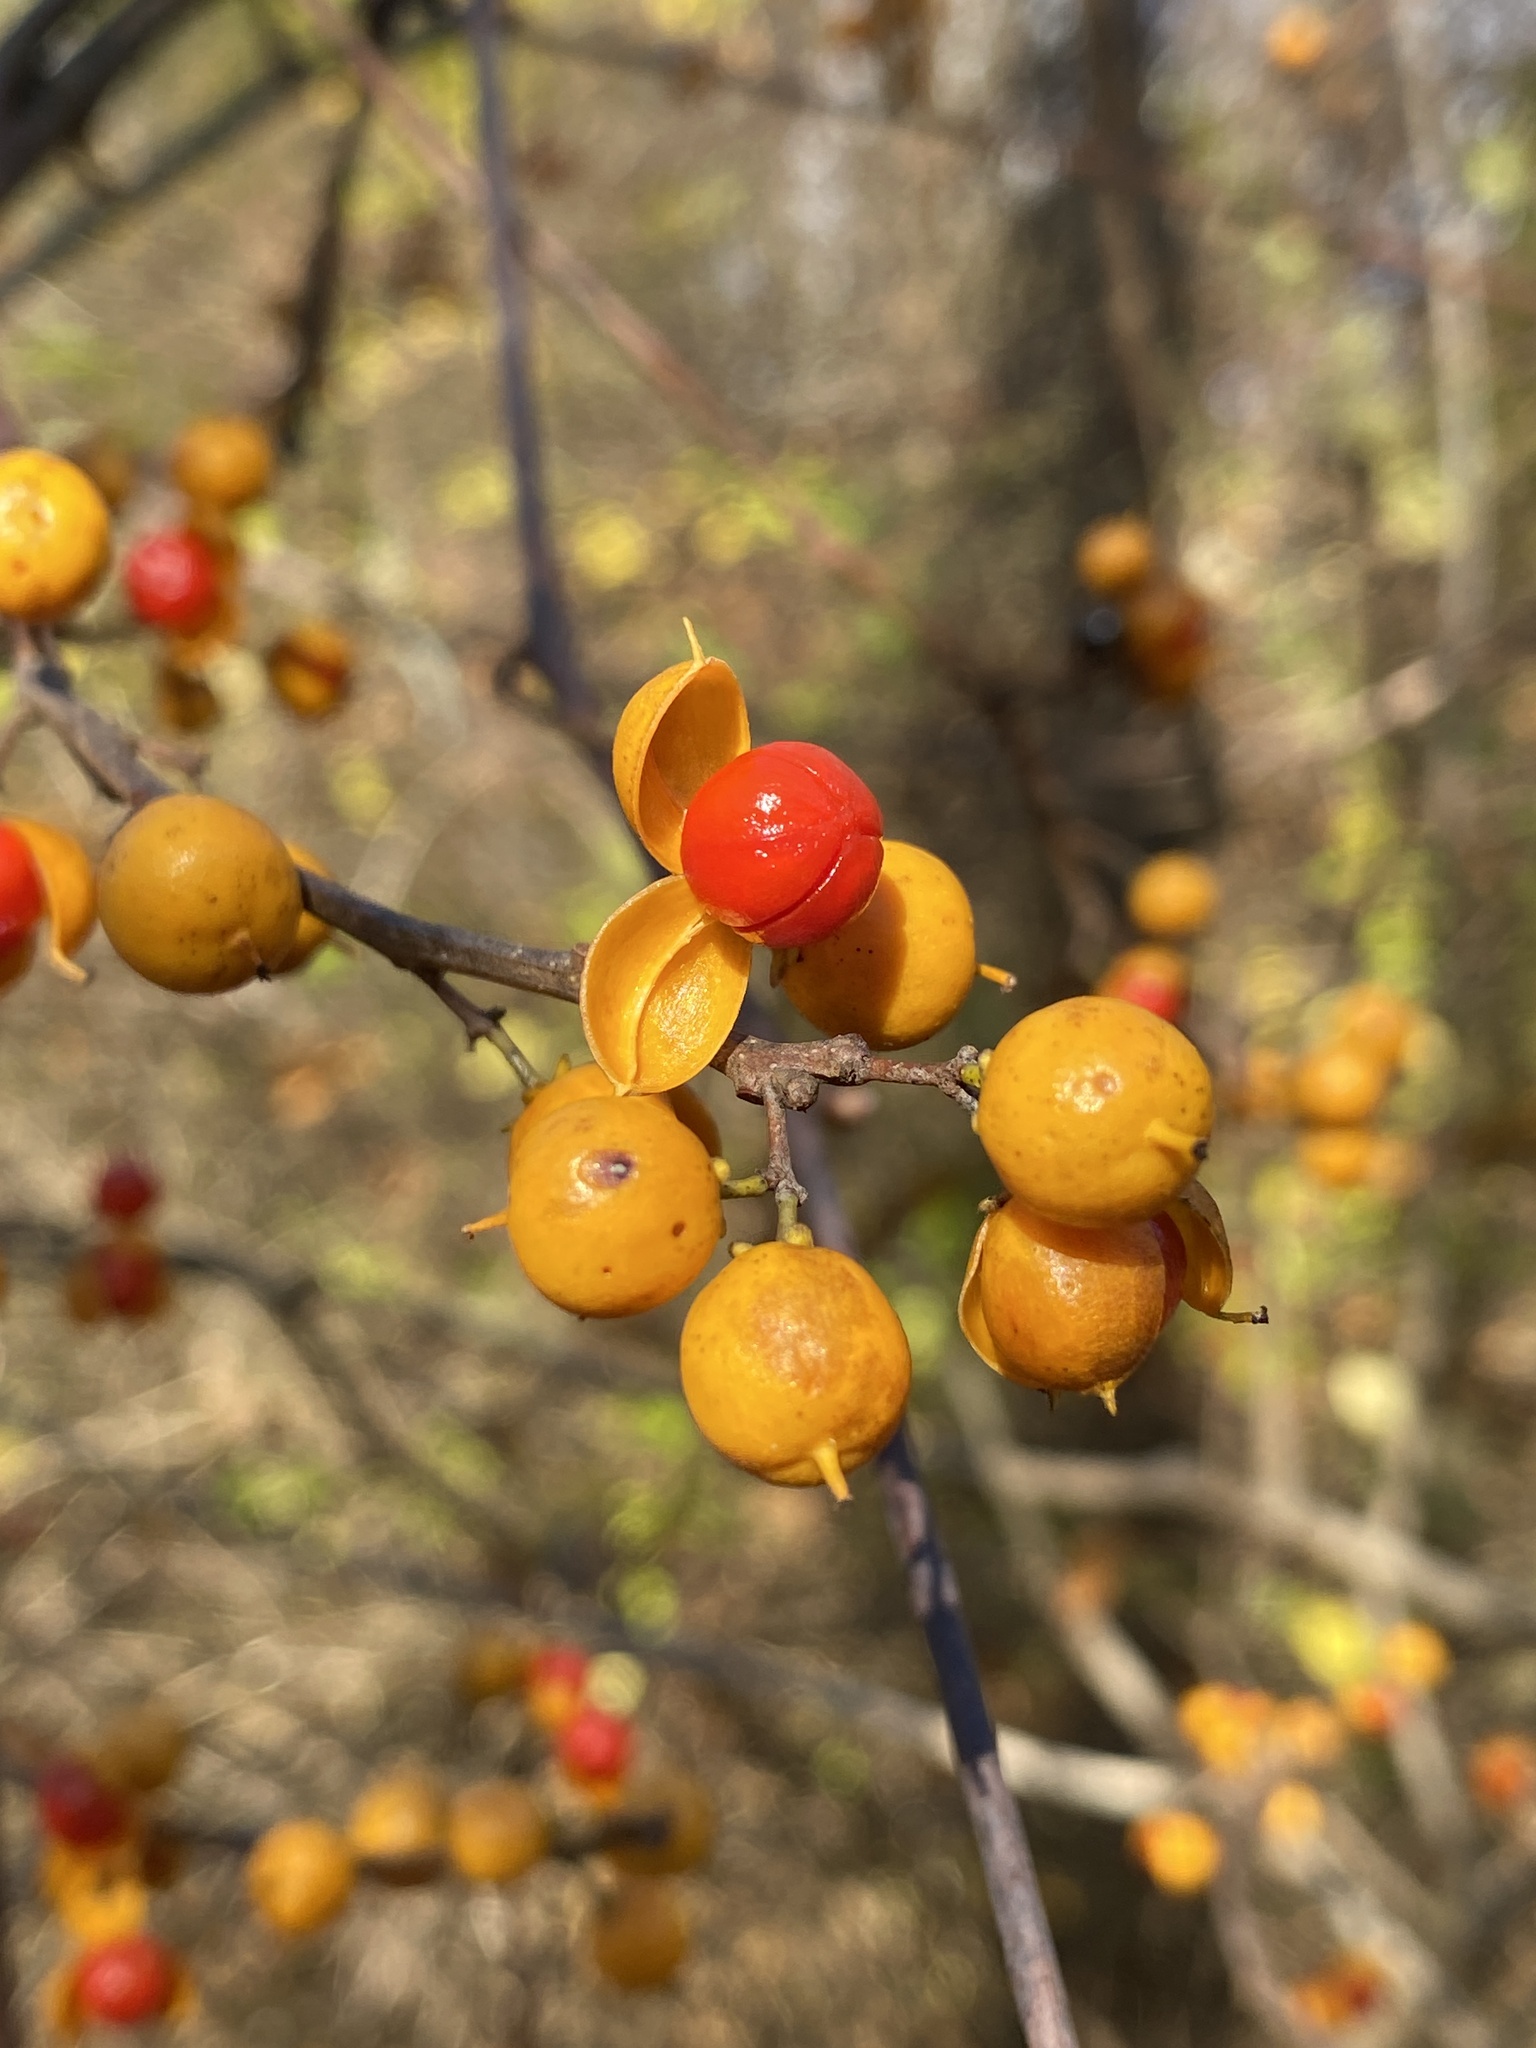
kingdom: Plantae
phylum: Tracheophyta
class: Magnoliopsida
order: Celastrales
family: Celastraceae
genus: Celastrus
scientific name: Celastrus orbiculatus
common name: Oriental bittersweet
